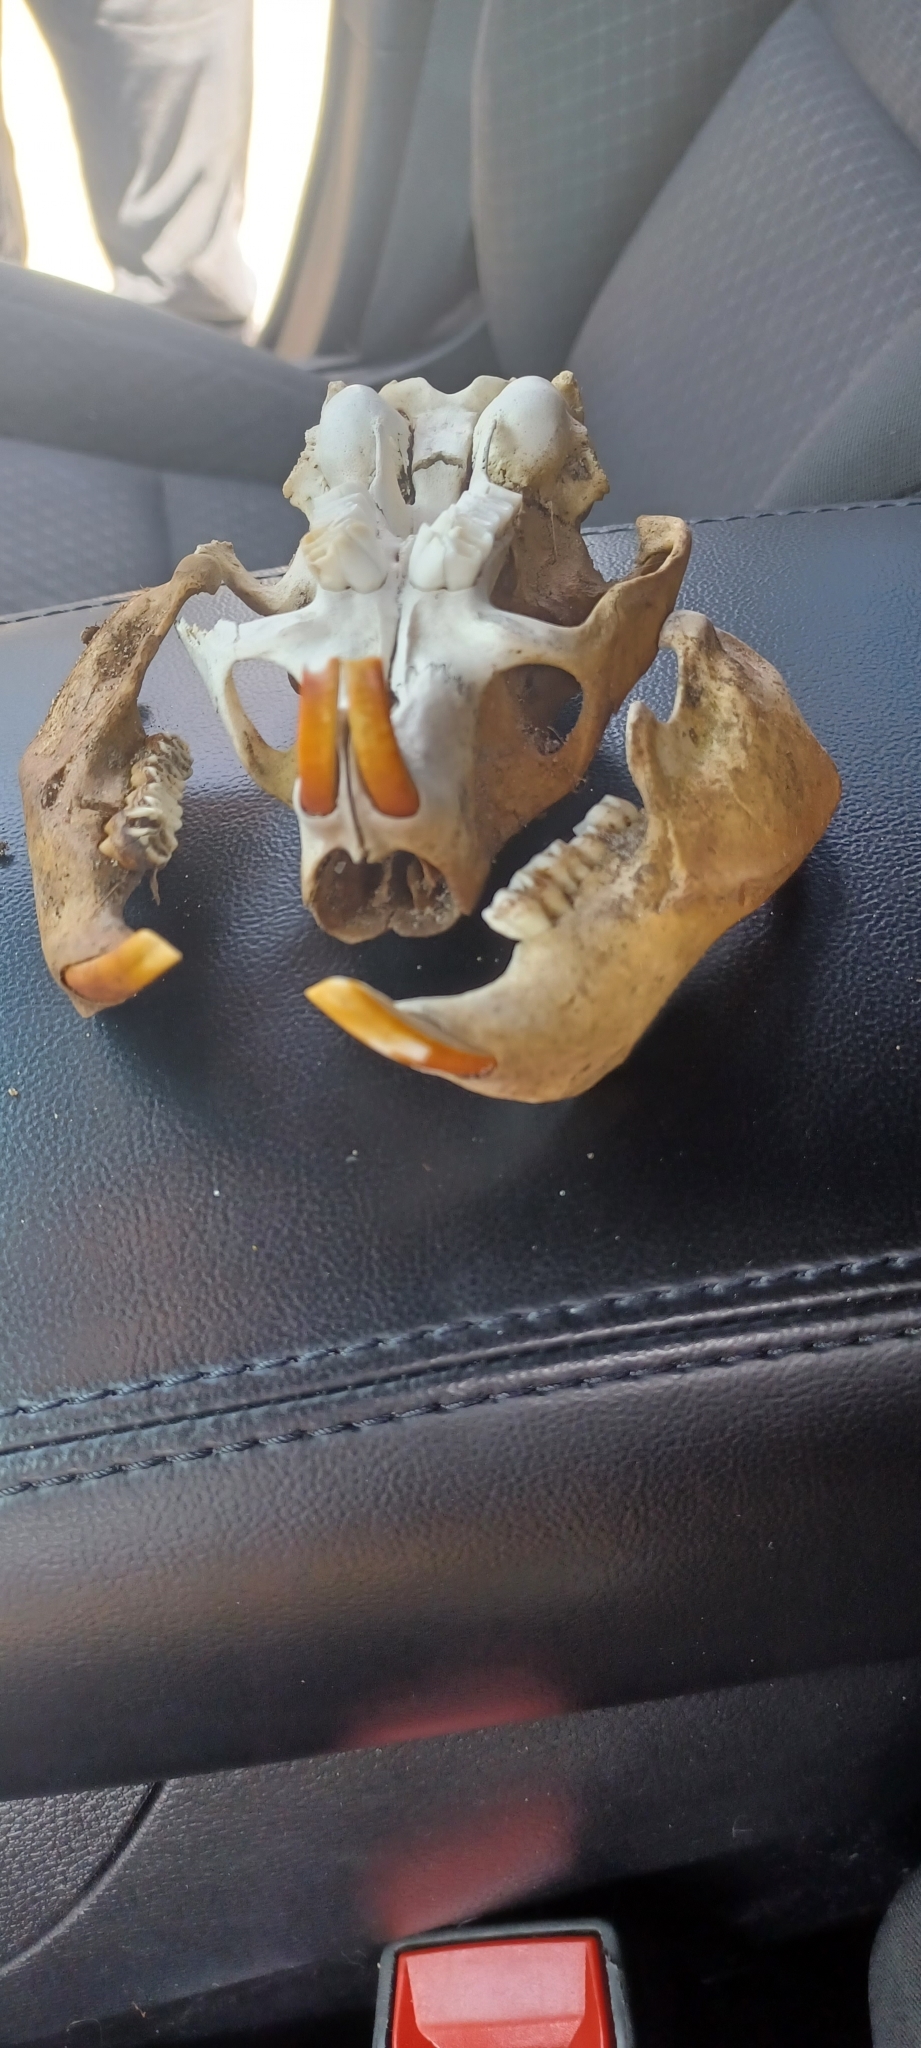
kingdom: Animalia
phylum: Chordata
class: Mammalia
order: Rodentia
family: Erethizontidae
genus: Erethizon
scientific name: Erethizon dorsatus
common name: North american porcupine
